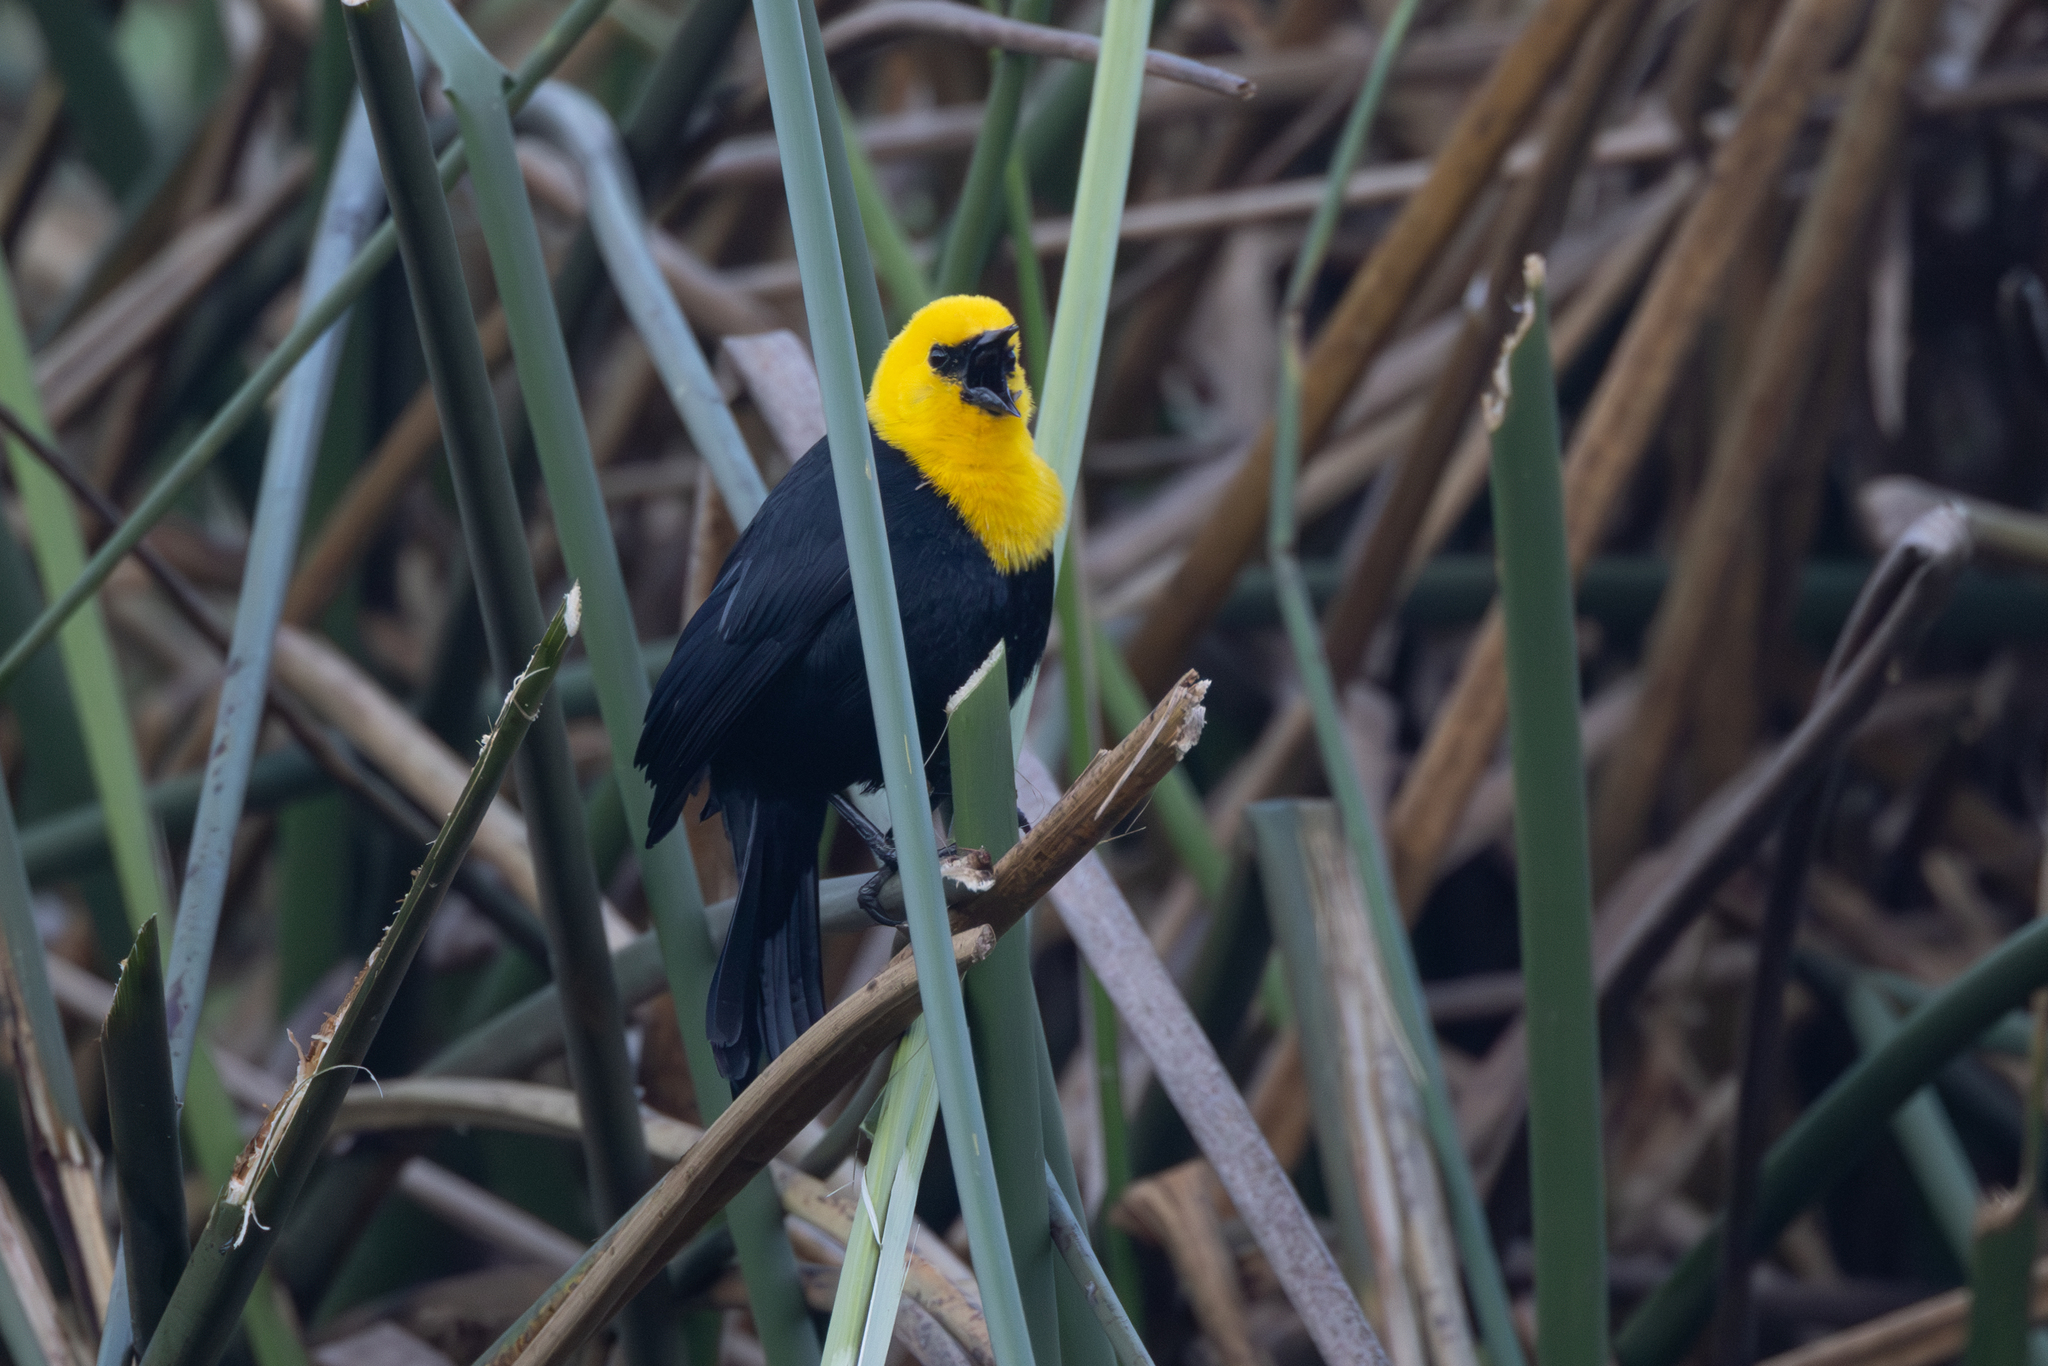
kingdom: Animalia
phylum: Chordata
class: Aves
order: Passeriformes
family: Icteridae
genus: Chrysomus
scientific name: Chrysomus icterocephalus
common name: Yellow-hooded blackbird
